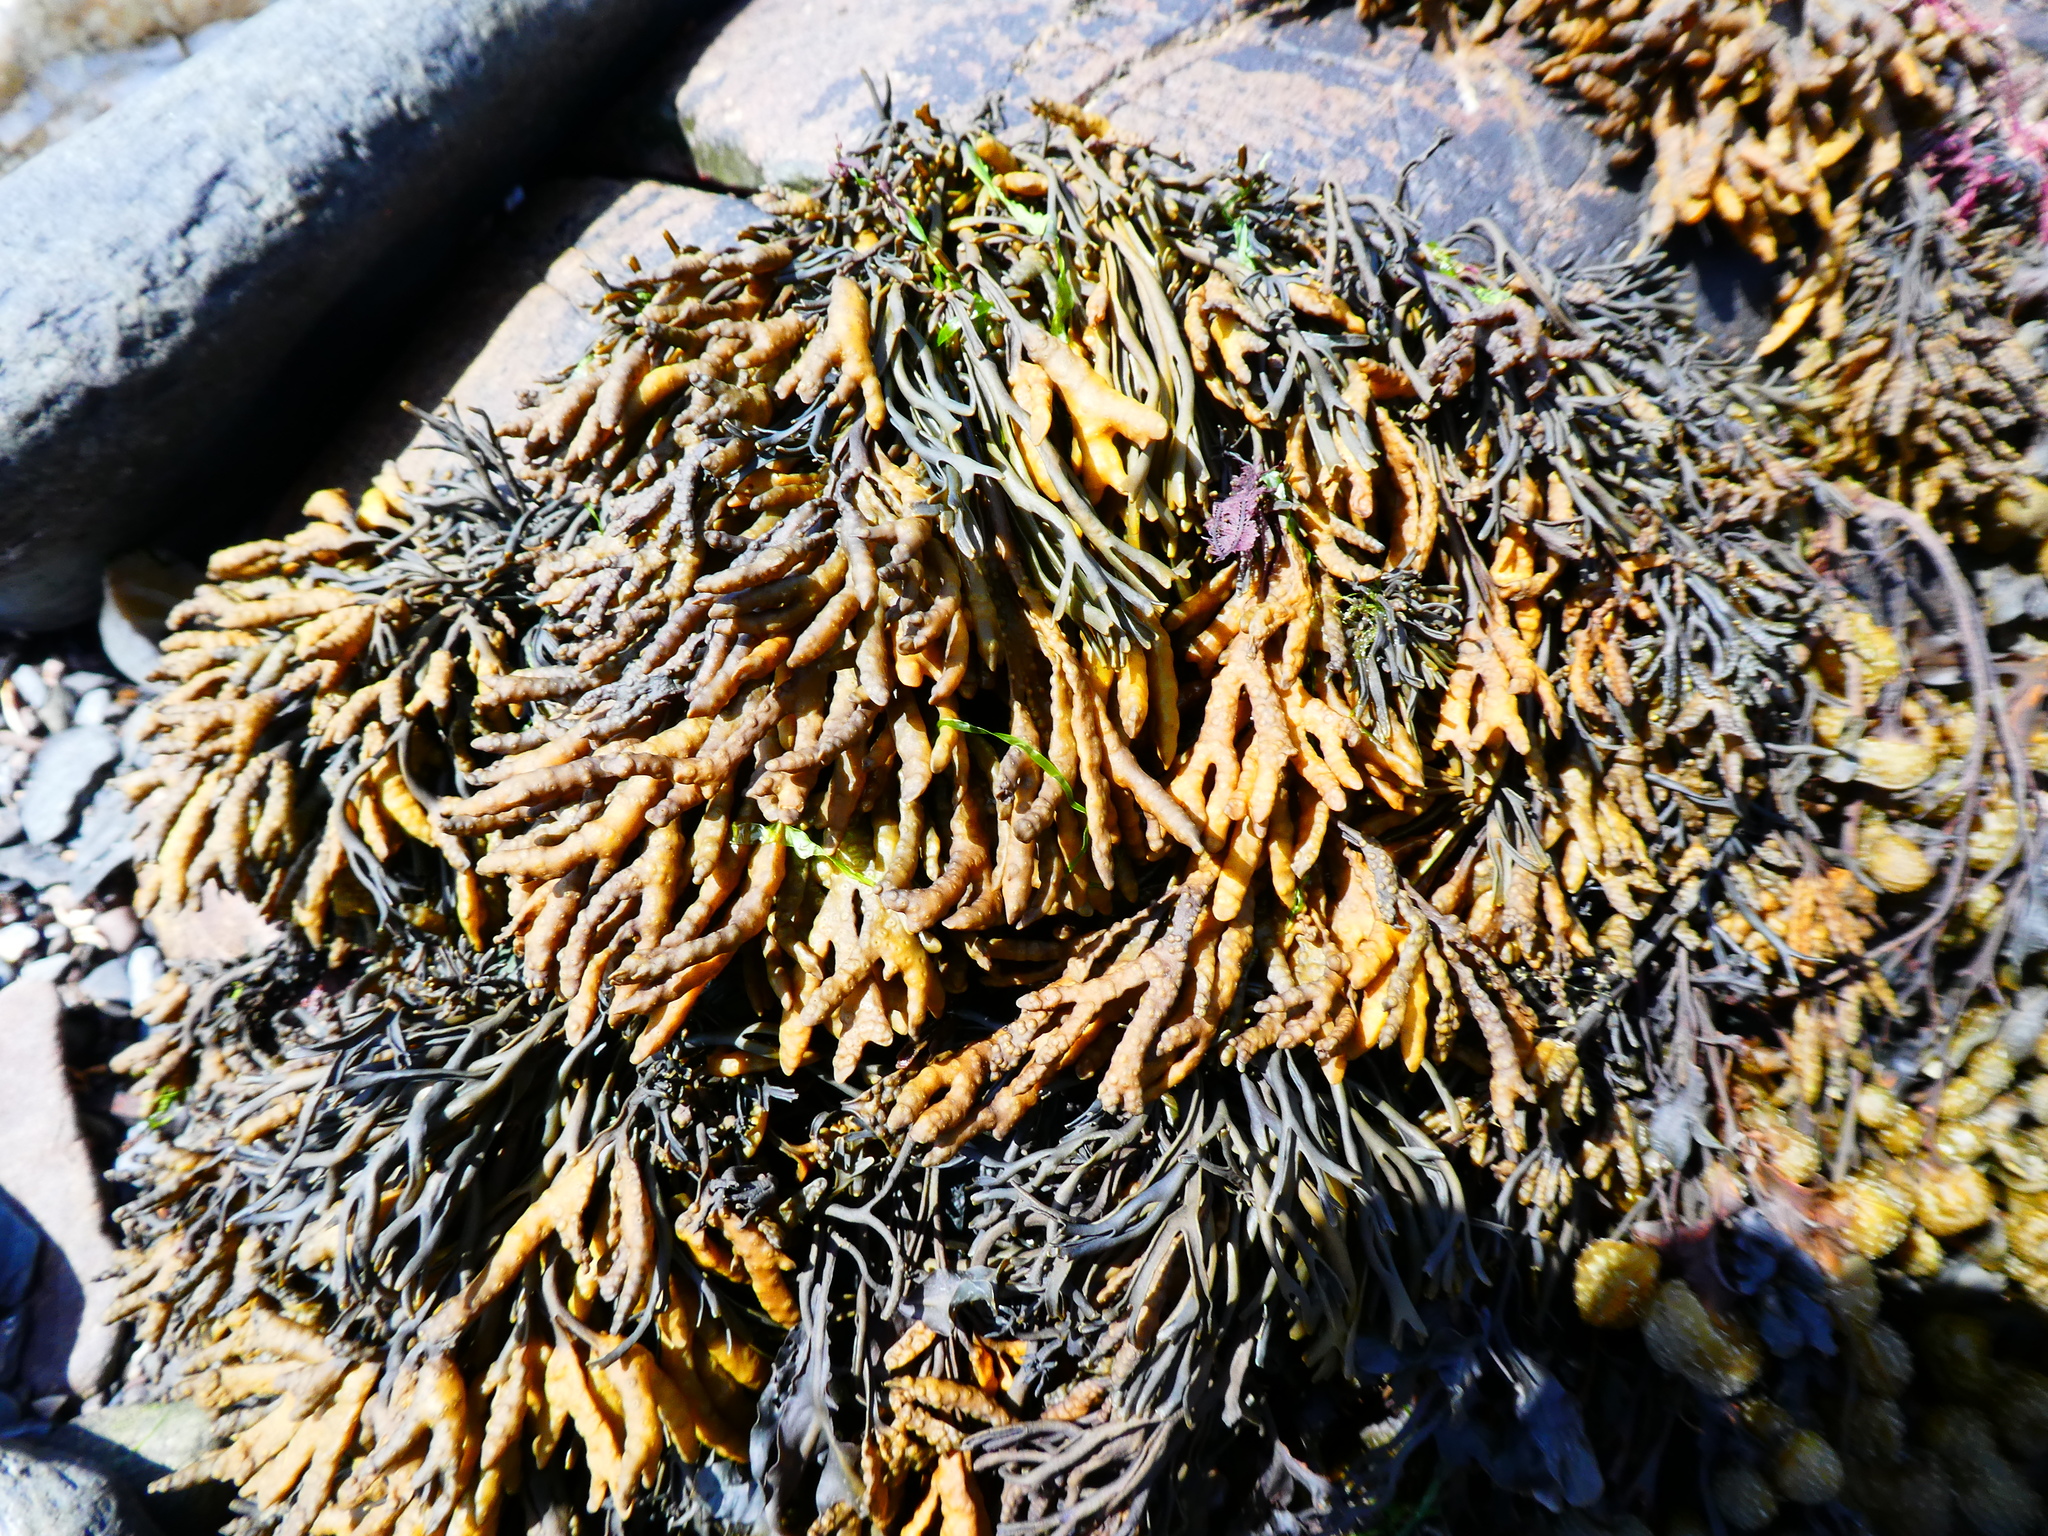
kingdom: Chromista
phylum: Ochrophyta
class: Phaeophyceae
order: Fucales
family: Fucaceae
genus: Pelvetia
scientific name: Pelvetia canaliculata
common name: Channelled wrack
